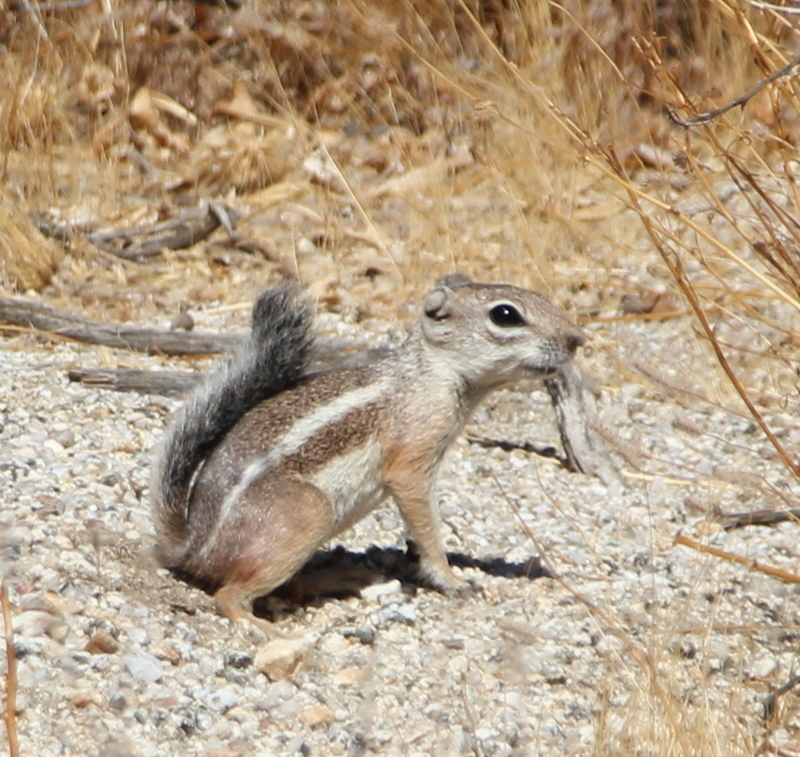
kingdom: Animalia
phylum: Chordata
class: Mammalia
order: Rodentia
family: Sciuridae
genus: Ammospermophilus
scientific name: Ammospermophilus leucurus
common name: White-tailed antelope squirrel
